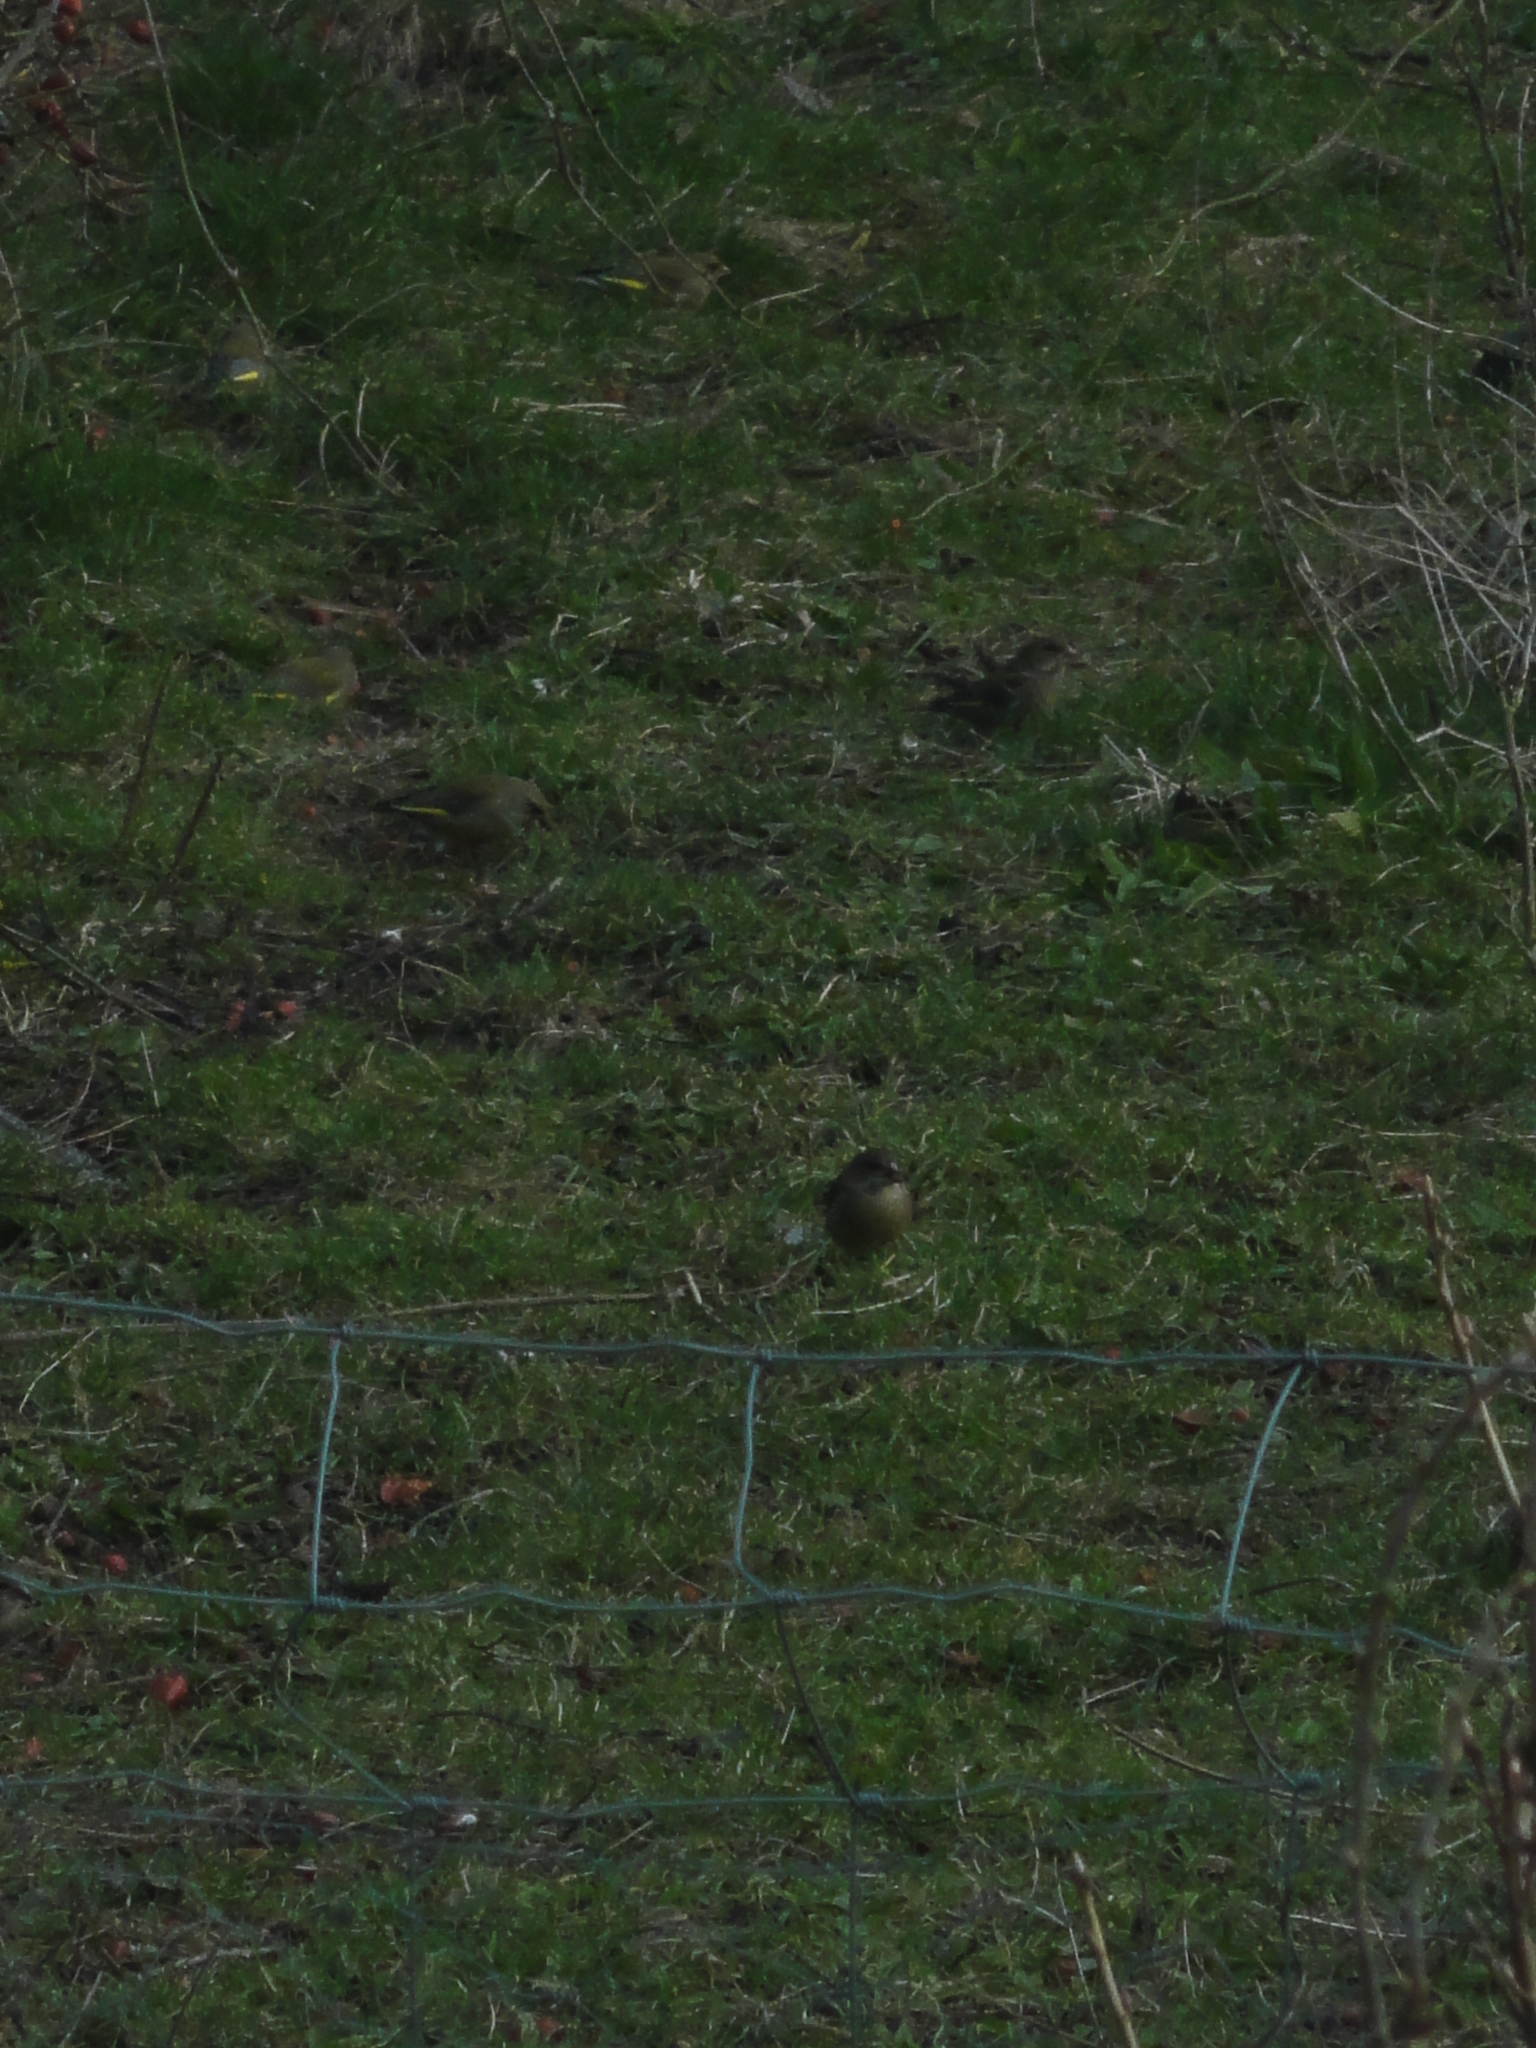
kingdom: Plantae
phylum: Tracheophyta
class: Liliopsida
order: Poales
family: Poaceae
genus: Chloris
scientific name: Chloris chloris
